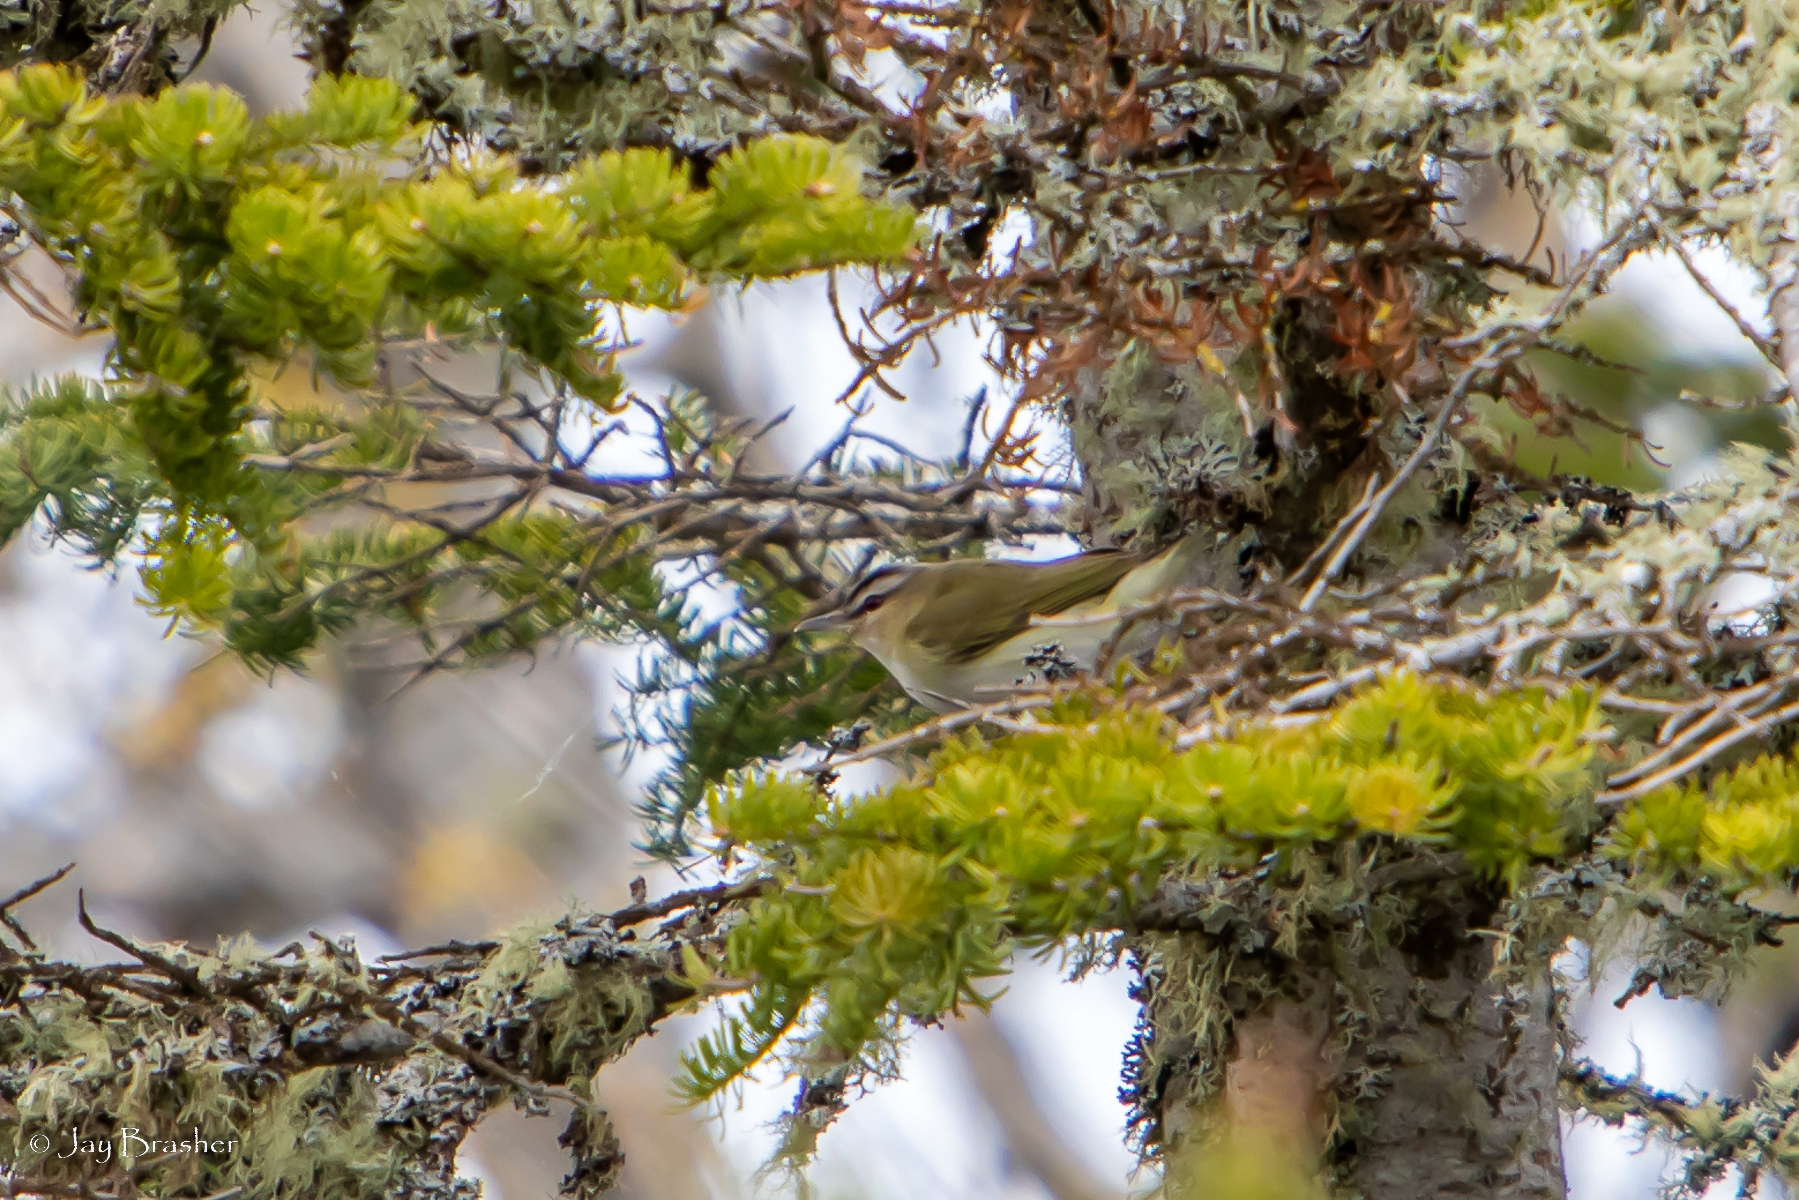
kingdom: Animalia
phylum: Chordata
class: Aves
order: Passeriformes
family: Vireonidae
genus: Vireo
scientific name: Vireo olivaceus
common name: Red-eyed vireo
